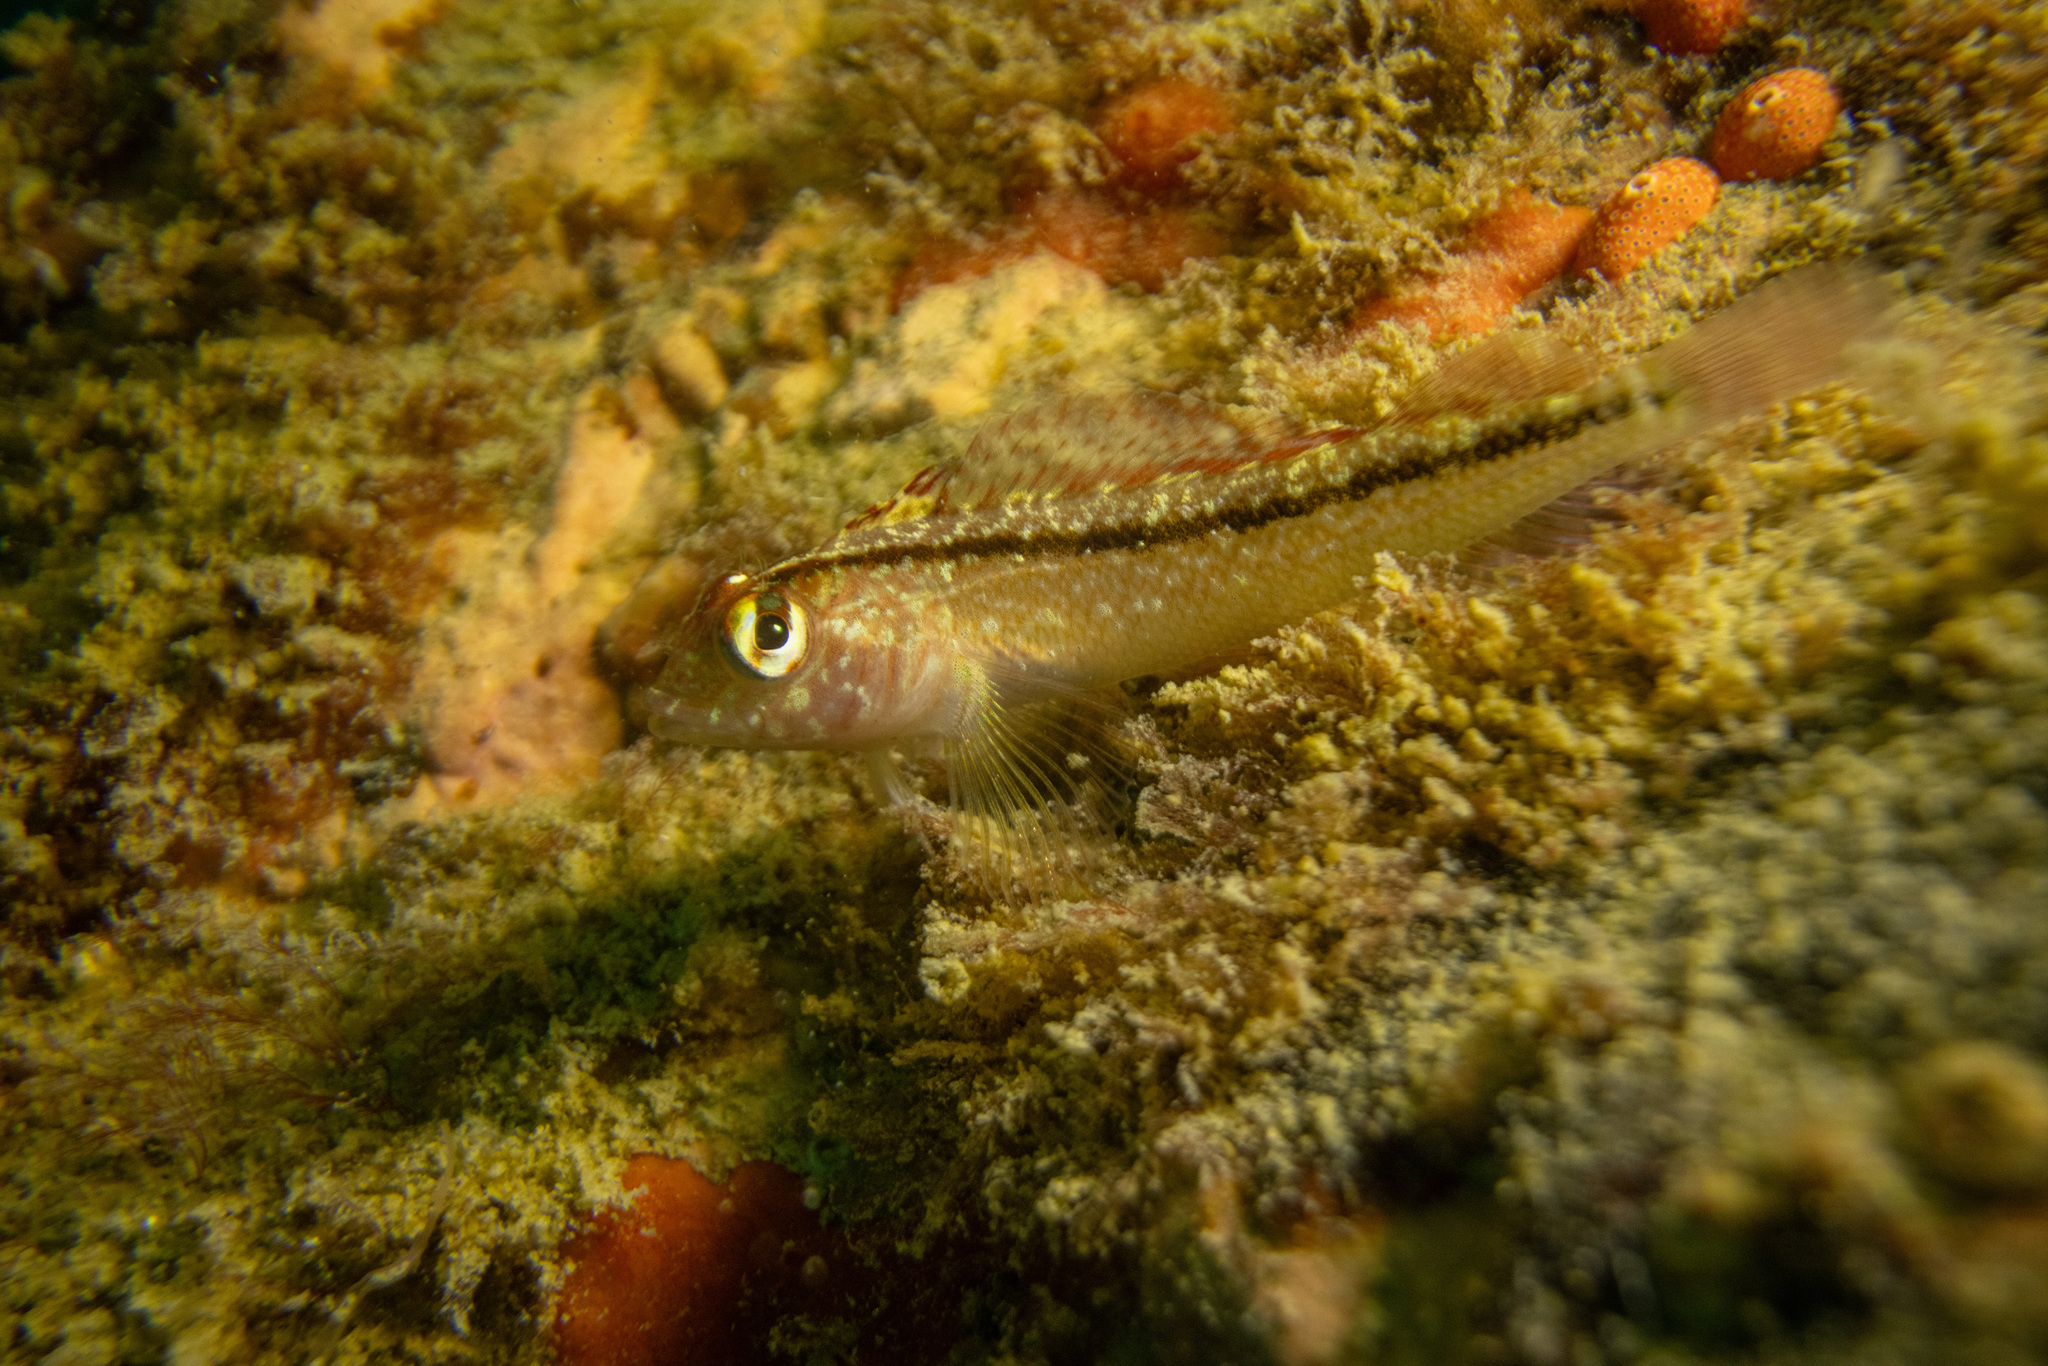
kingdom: Animalia
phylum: Chordata
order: Perciformes
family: Tripterygiidae
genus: Forsterygion
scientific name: Forsterygion lapillum
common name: Common triplefin
